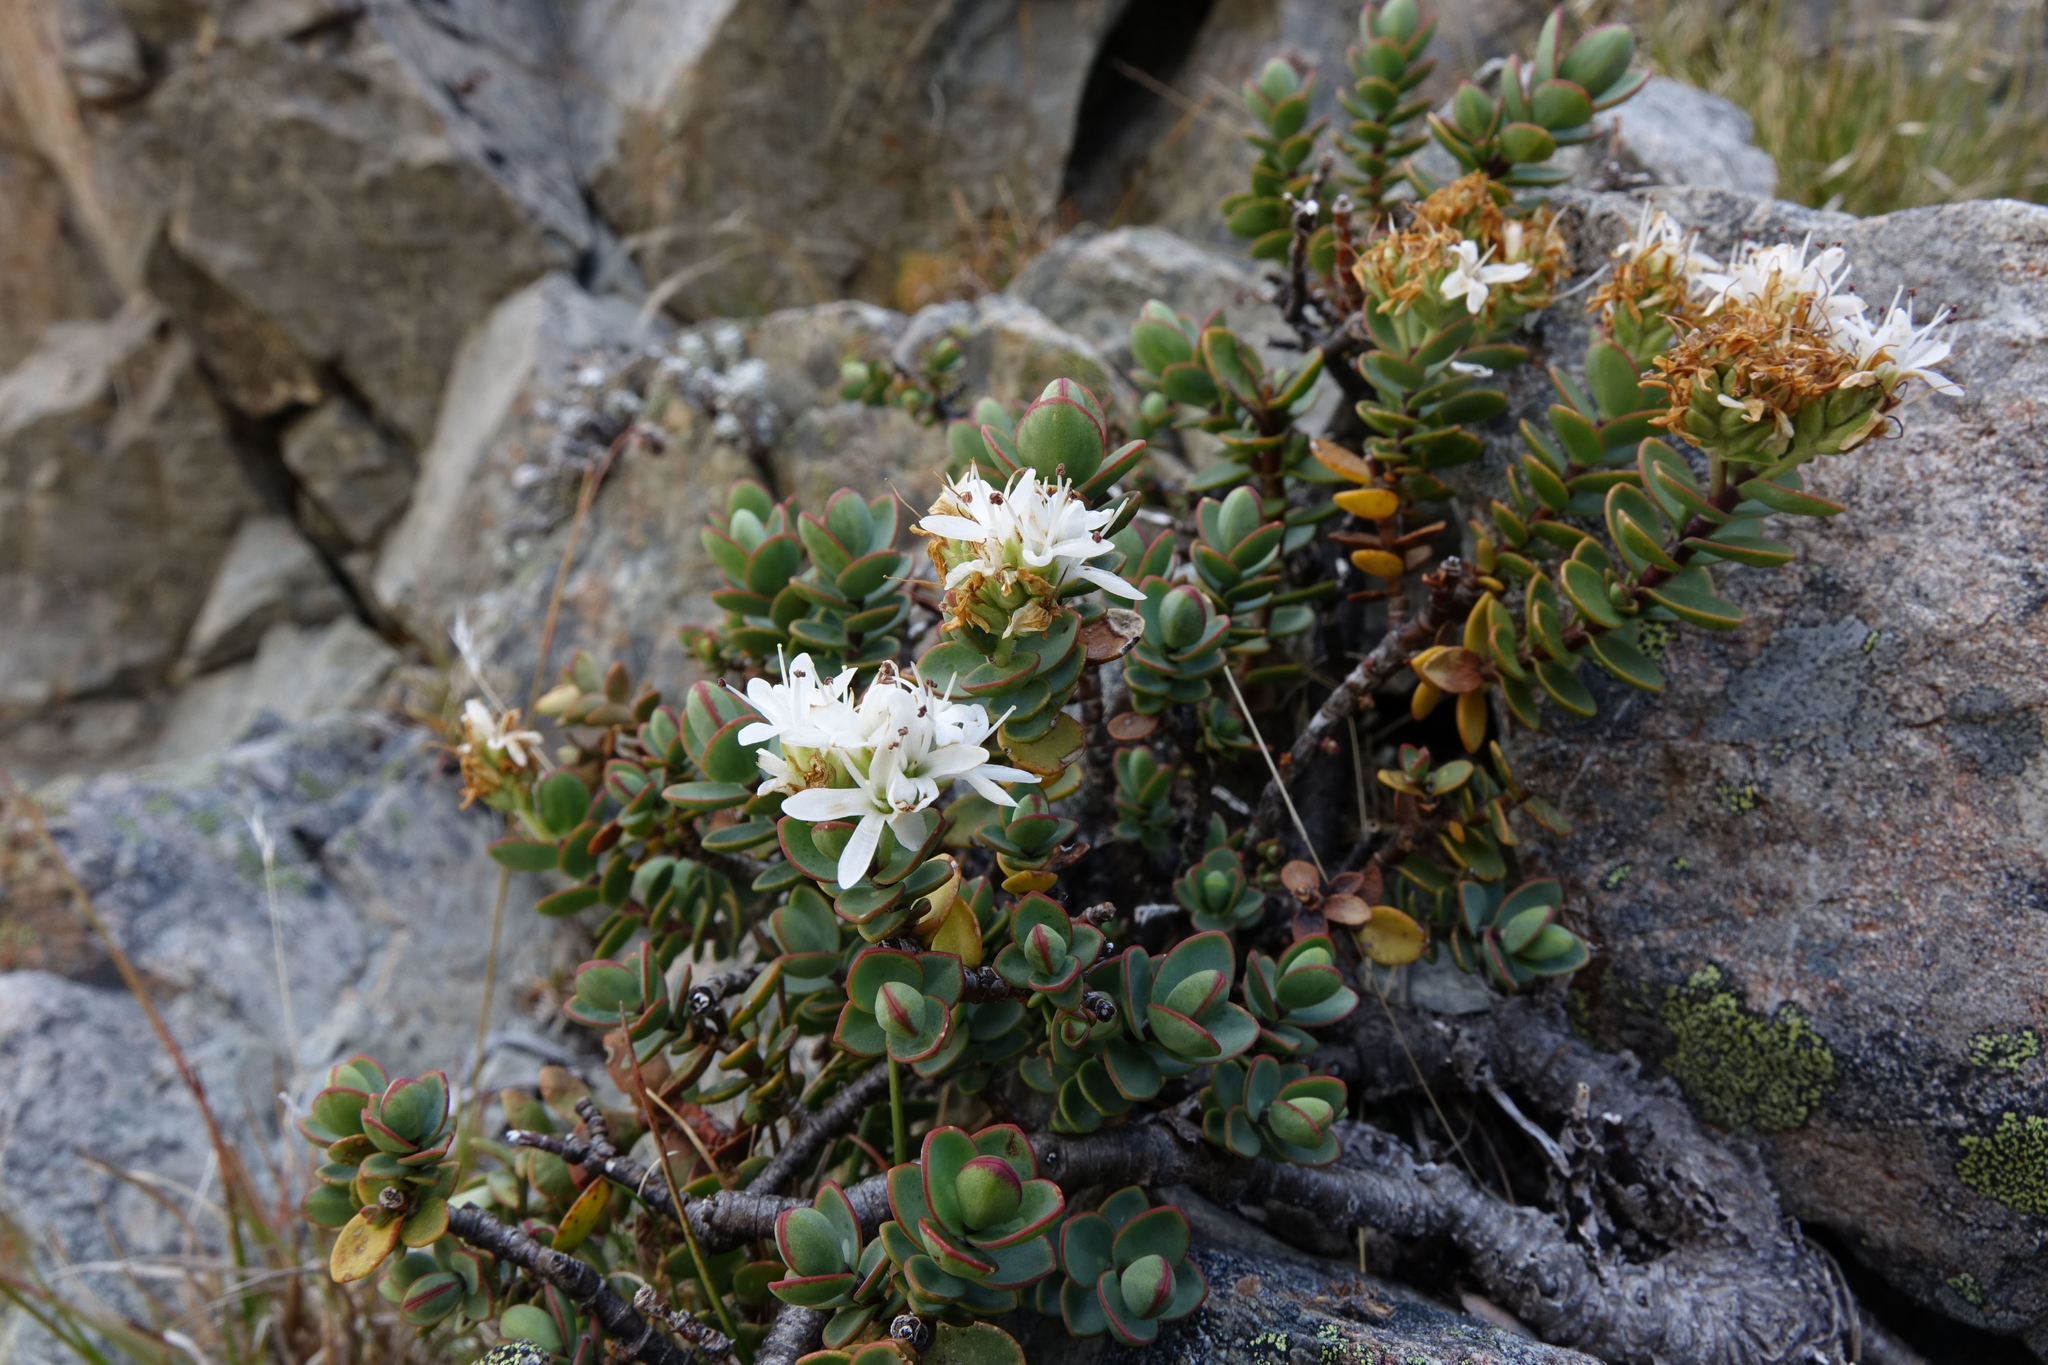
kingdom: Plantae
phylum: Tracheophyta
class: Magnoliopsida
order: Lamiales
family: Plantaginaceae
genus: Veronica
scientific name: Veronica pinguifolia
